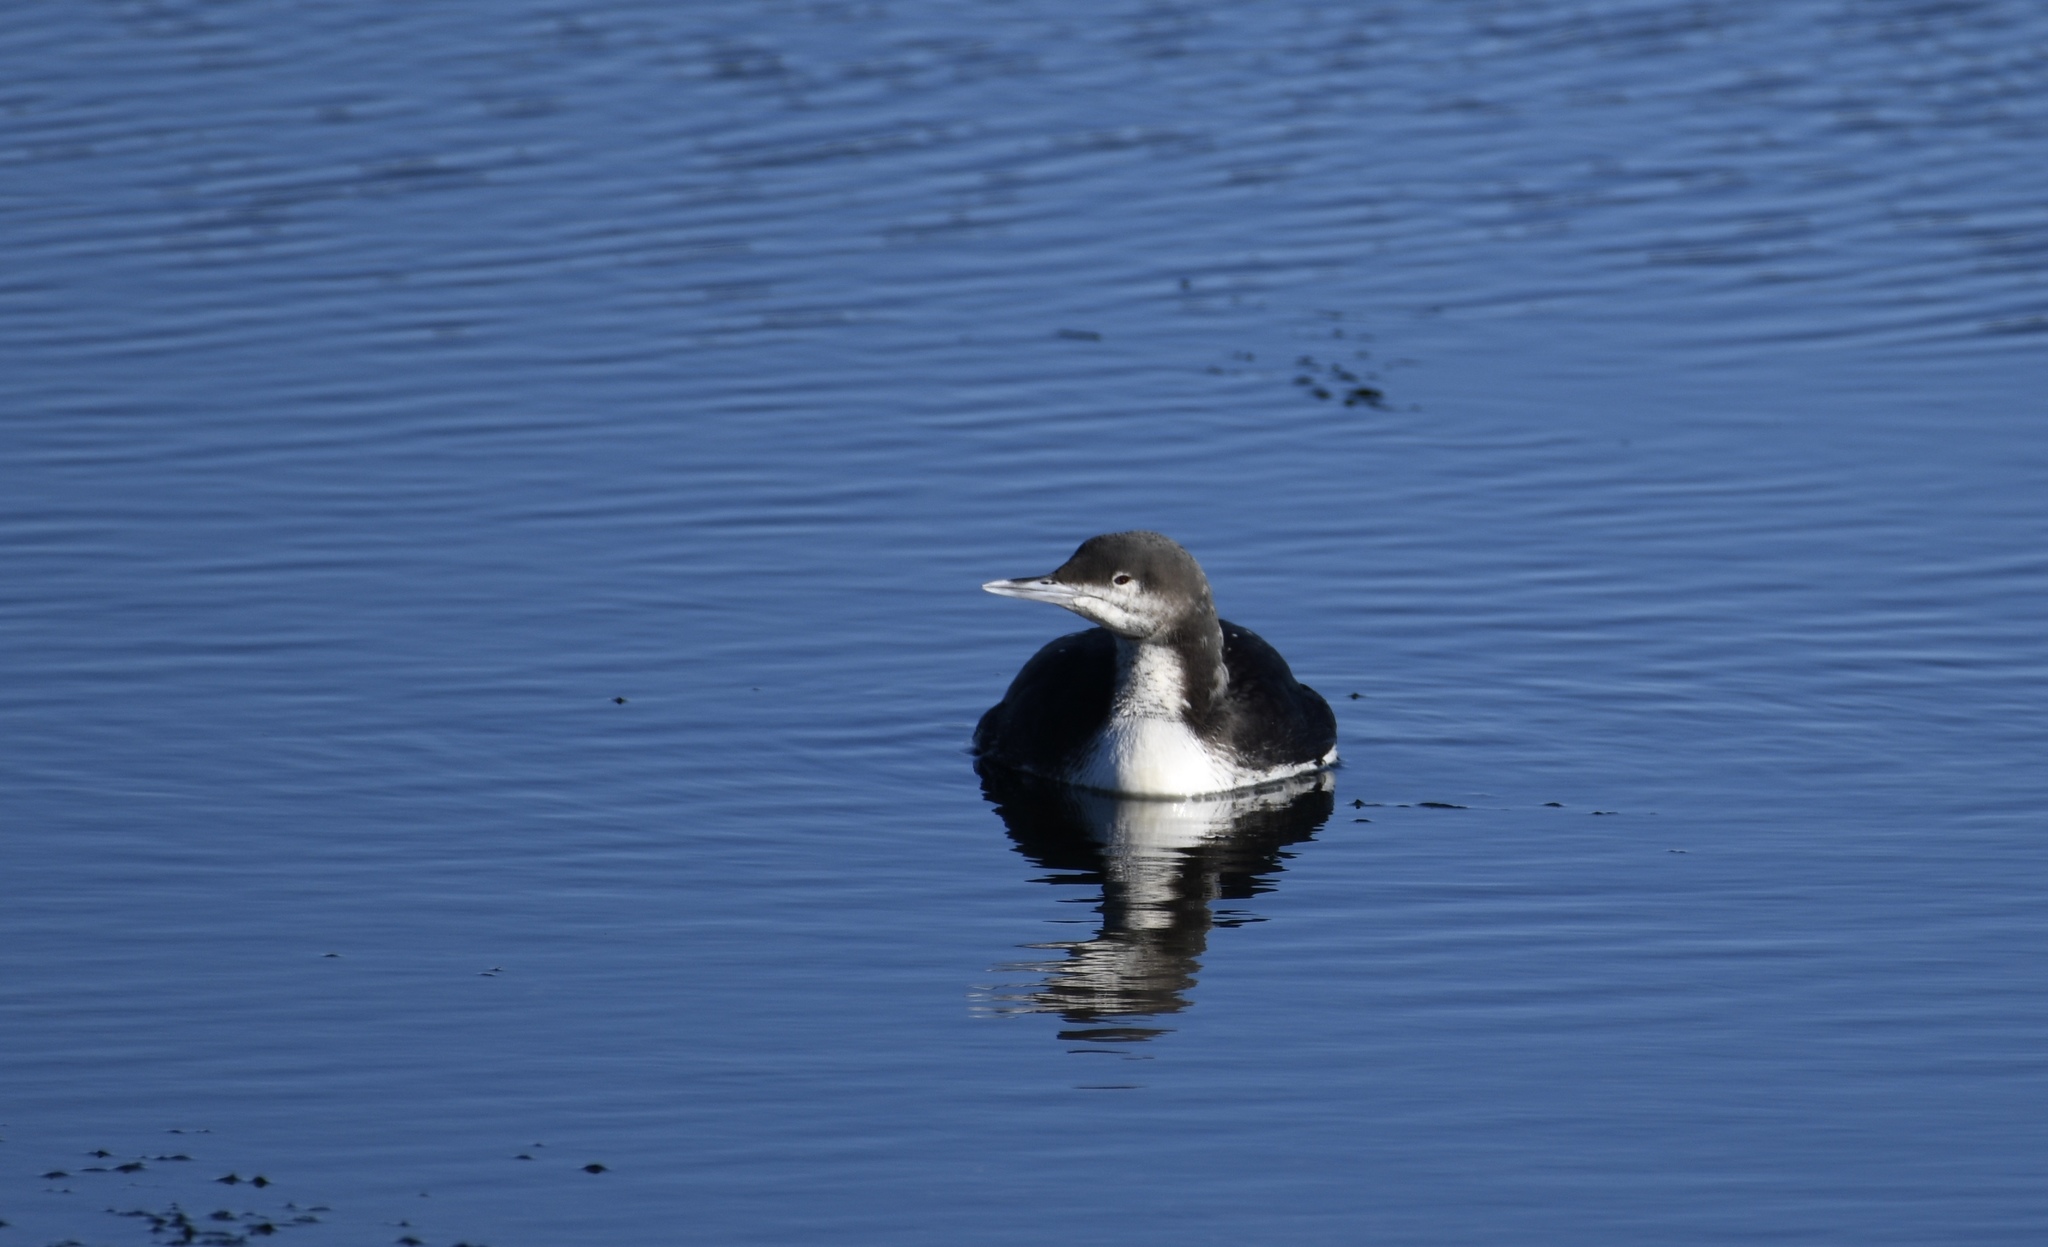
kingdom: Animalia
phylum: Chordata
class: Aves
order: Gaviiformes
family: Gaviidae
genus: Gavia
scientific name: Gavia pacifica
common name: Pacific loon
